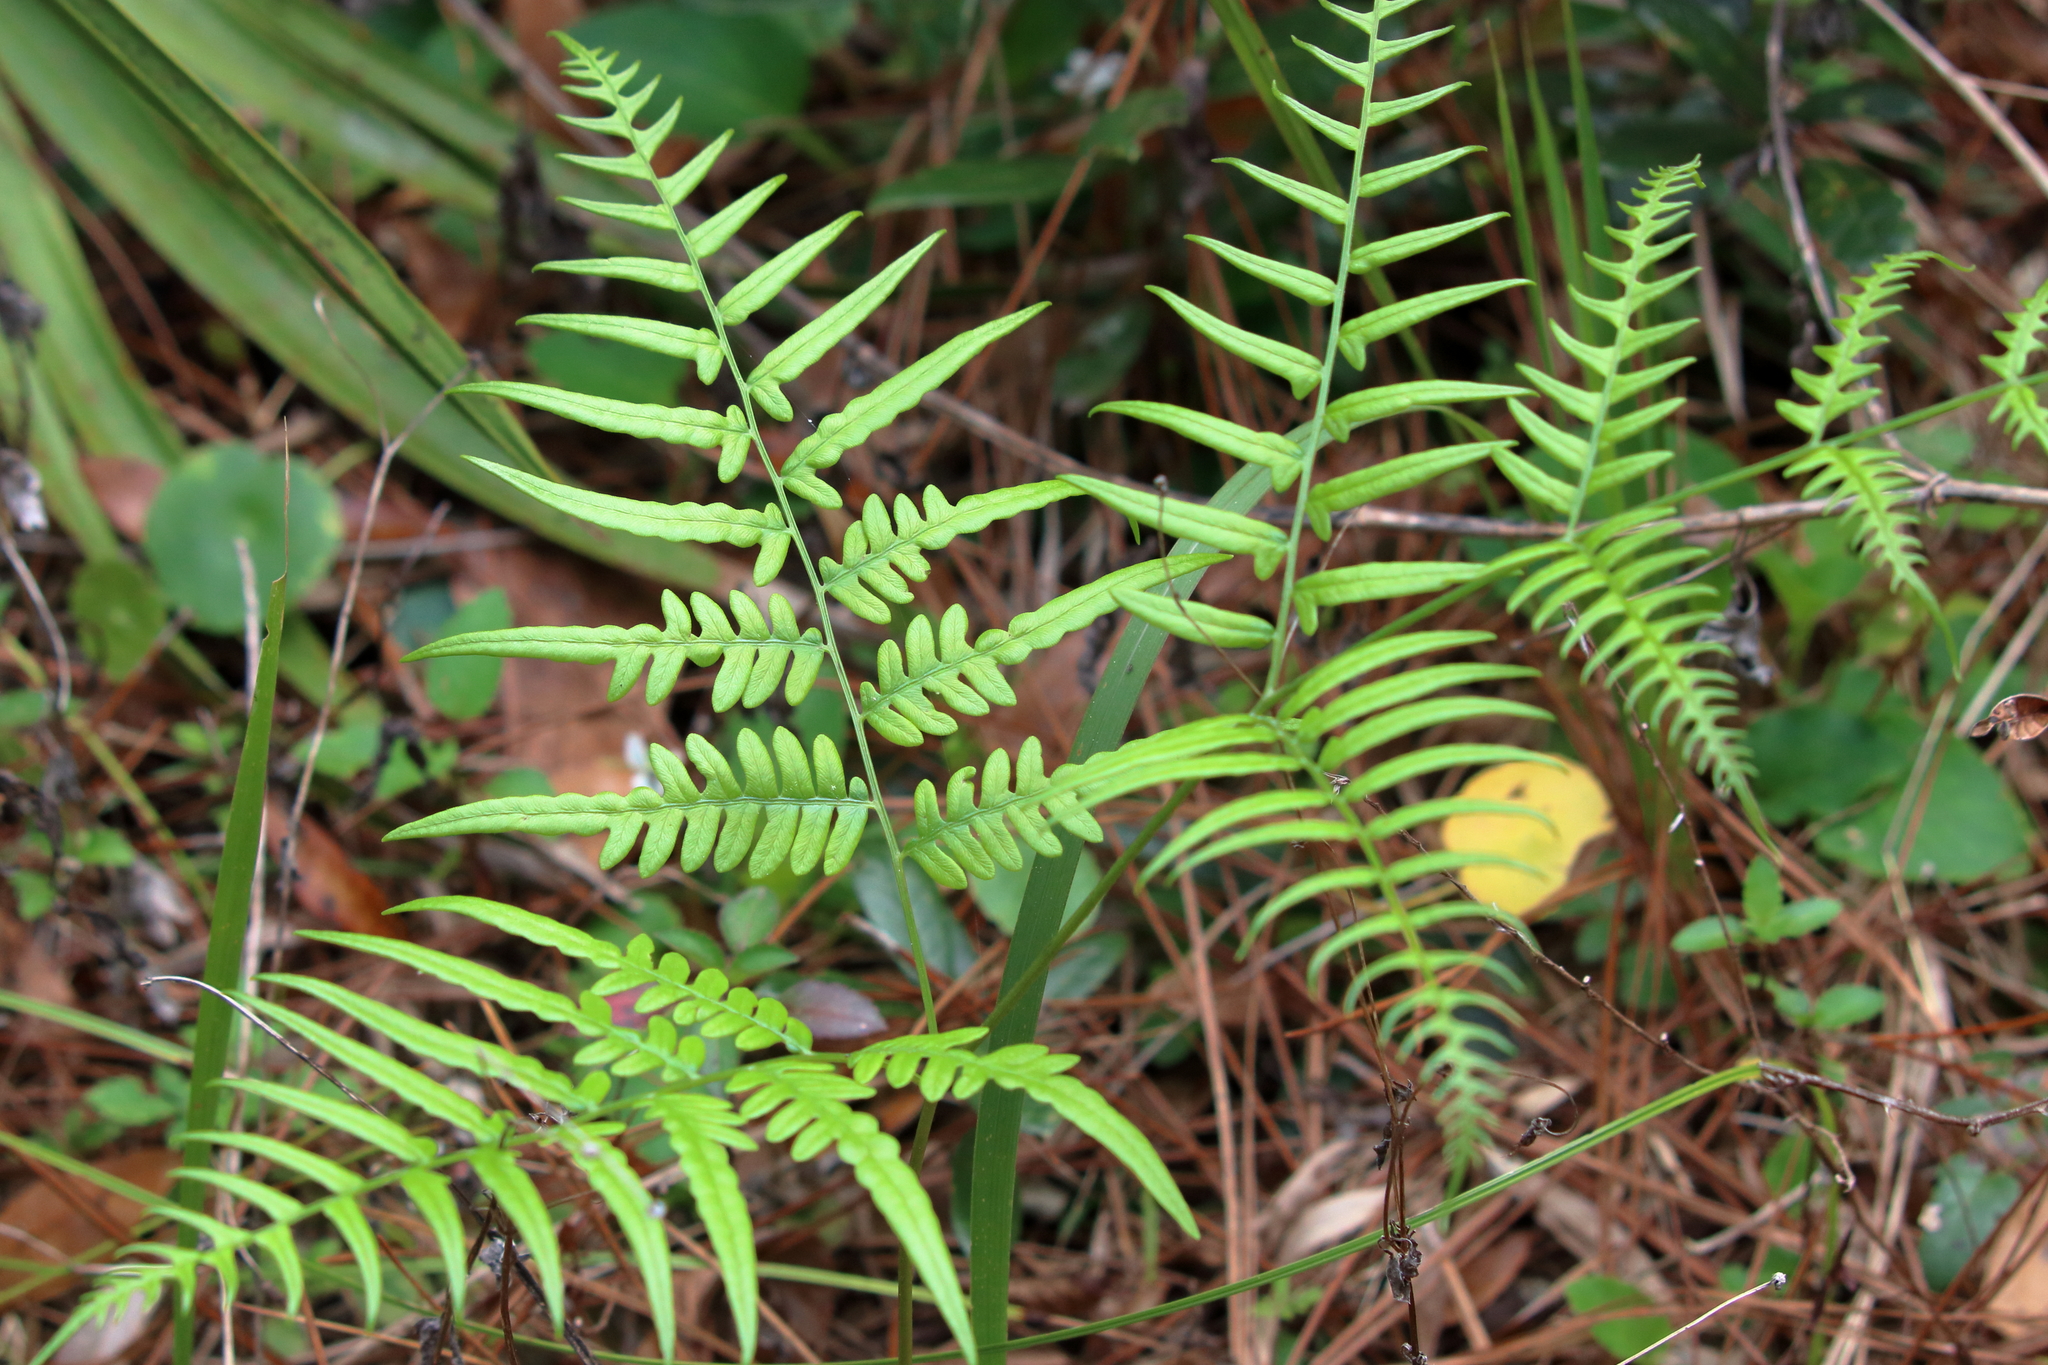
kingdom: Plantae
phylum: Tracheophyta
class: Polypodiopsida
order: Polypodiales
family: Dennstaedtiaceae
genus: Pteridium
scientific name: Pteridium
